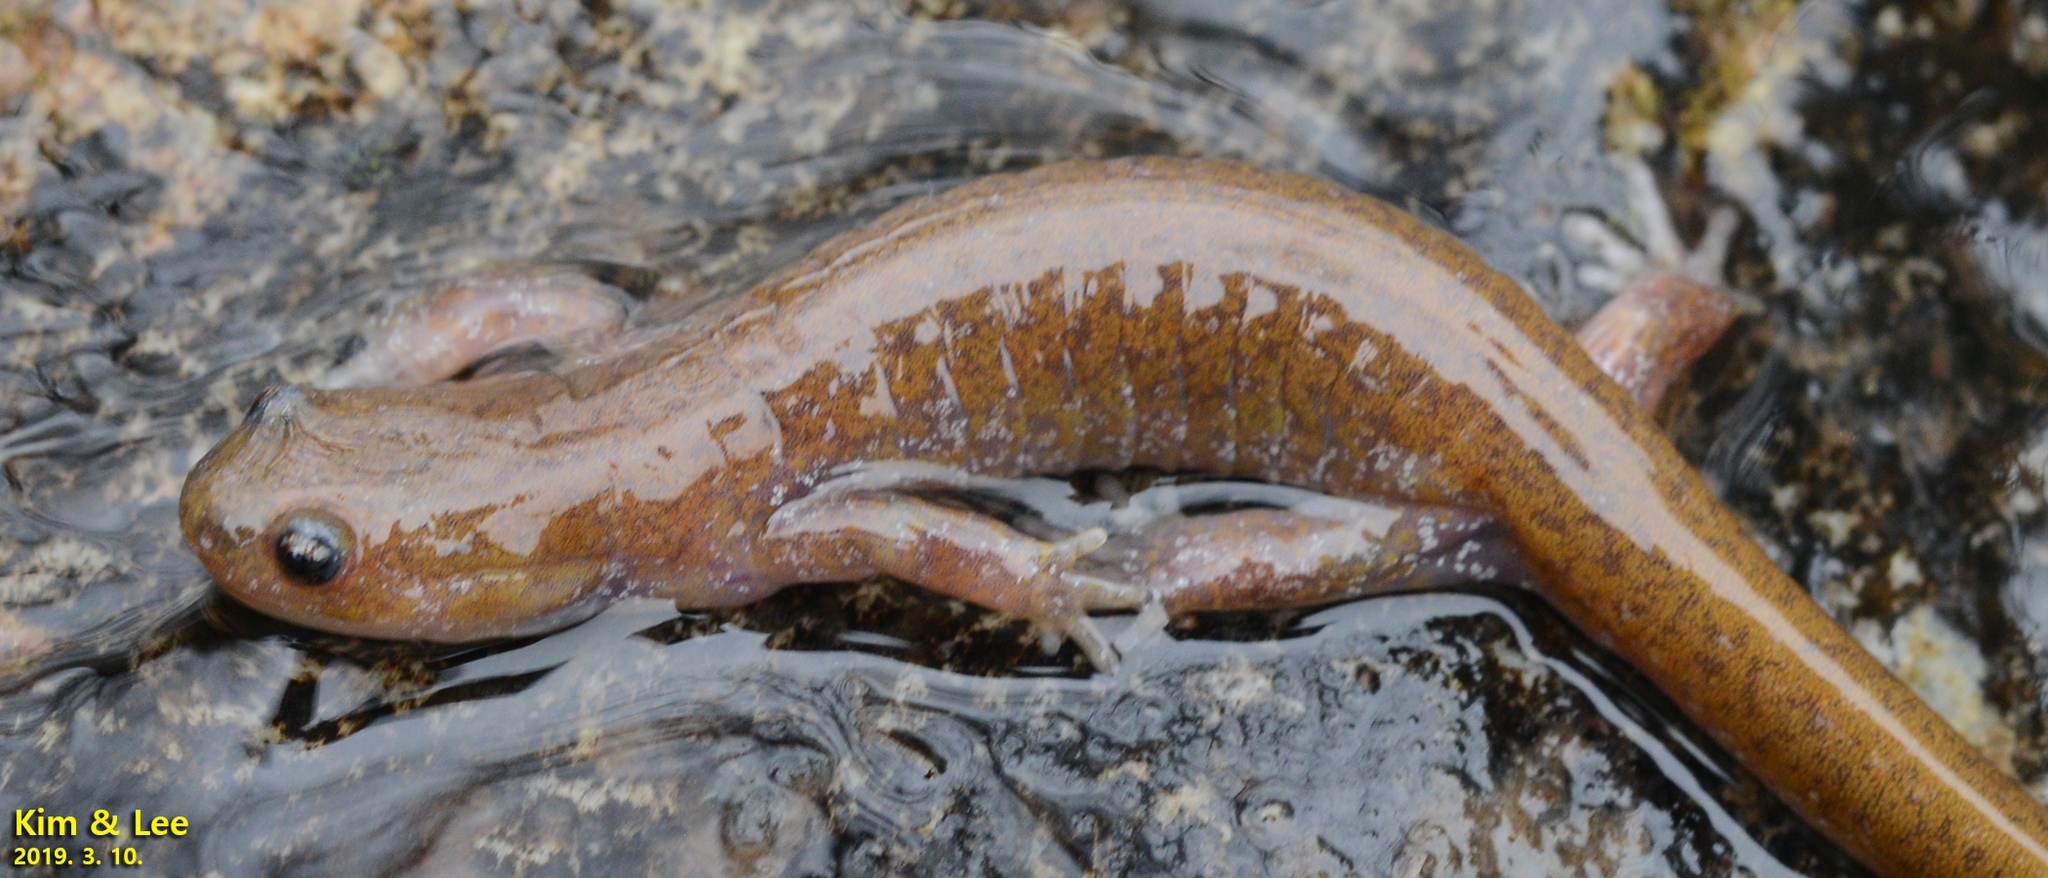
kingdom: Animalia
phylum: Chordata
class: Amphibia
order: Caudata
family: Hynobiidae
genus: Hynobius
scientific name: Hynobius unisacculus
